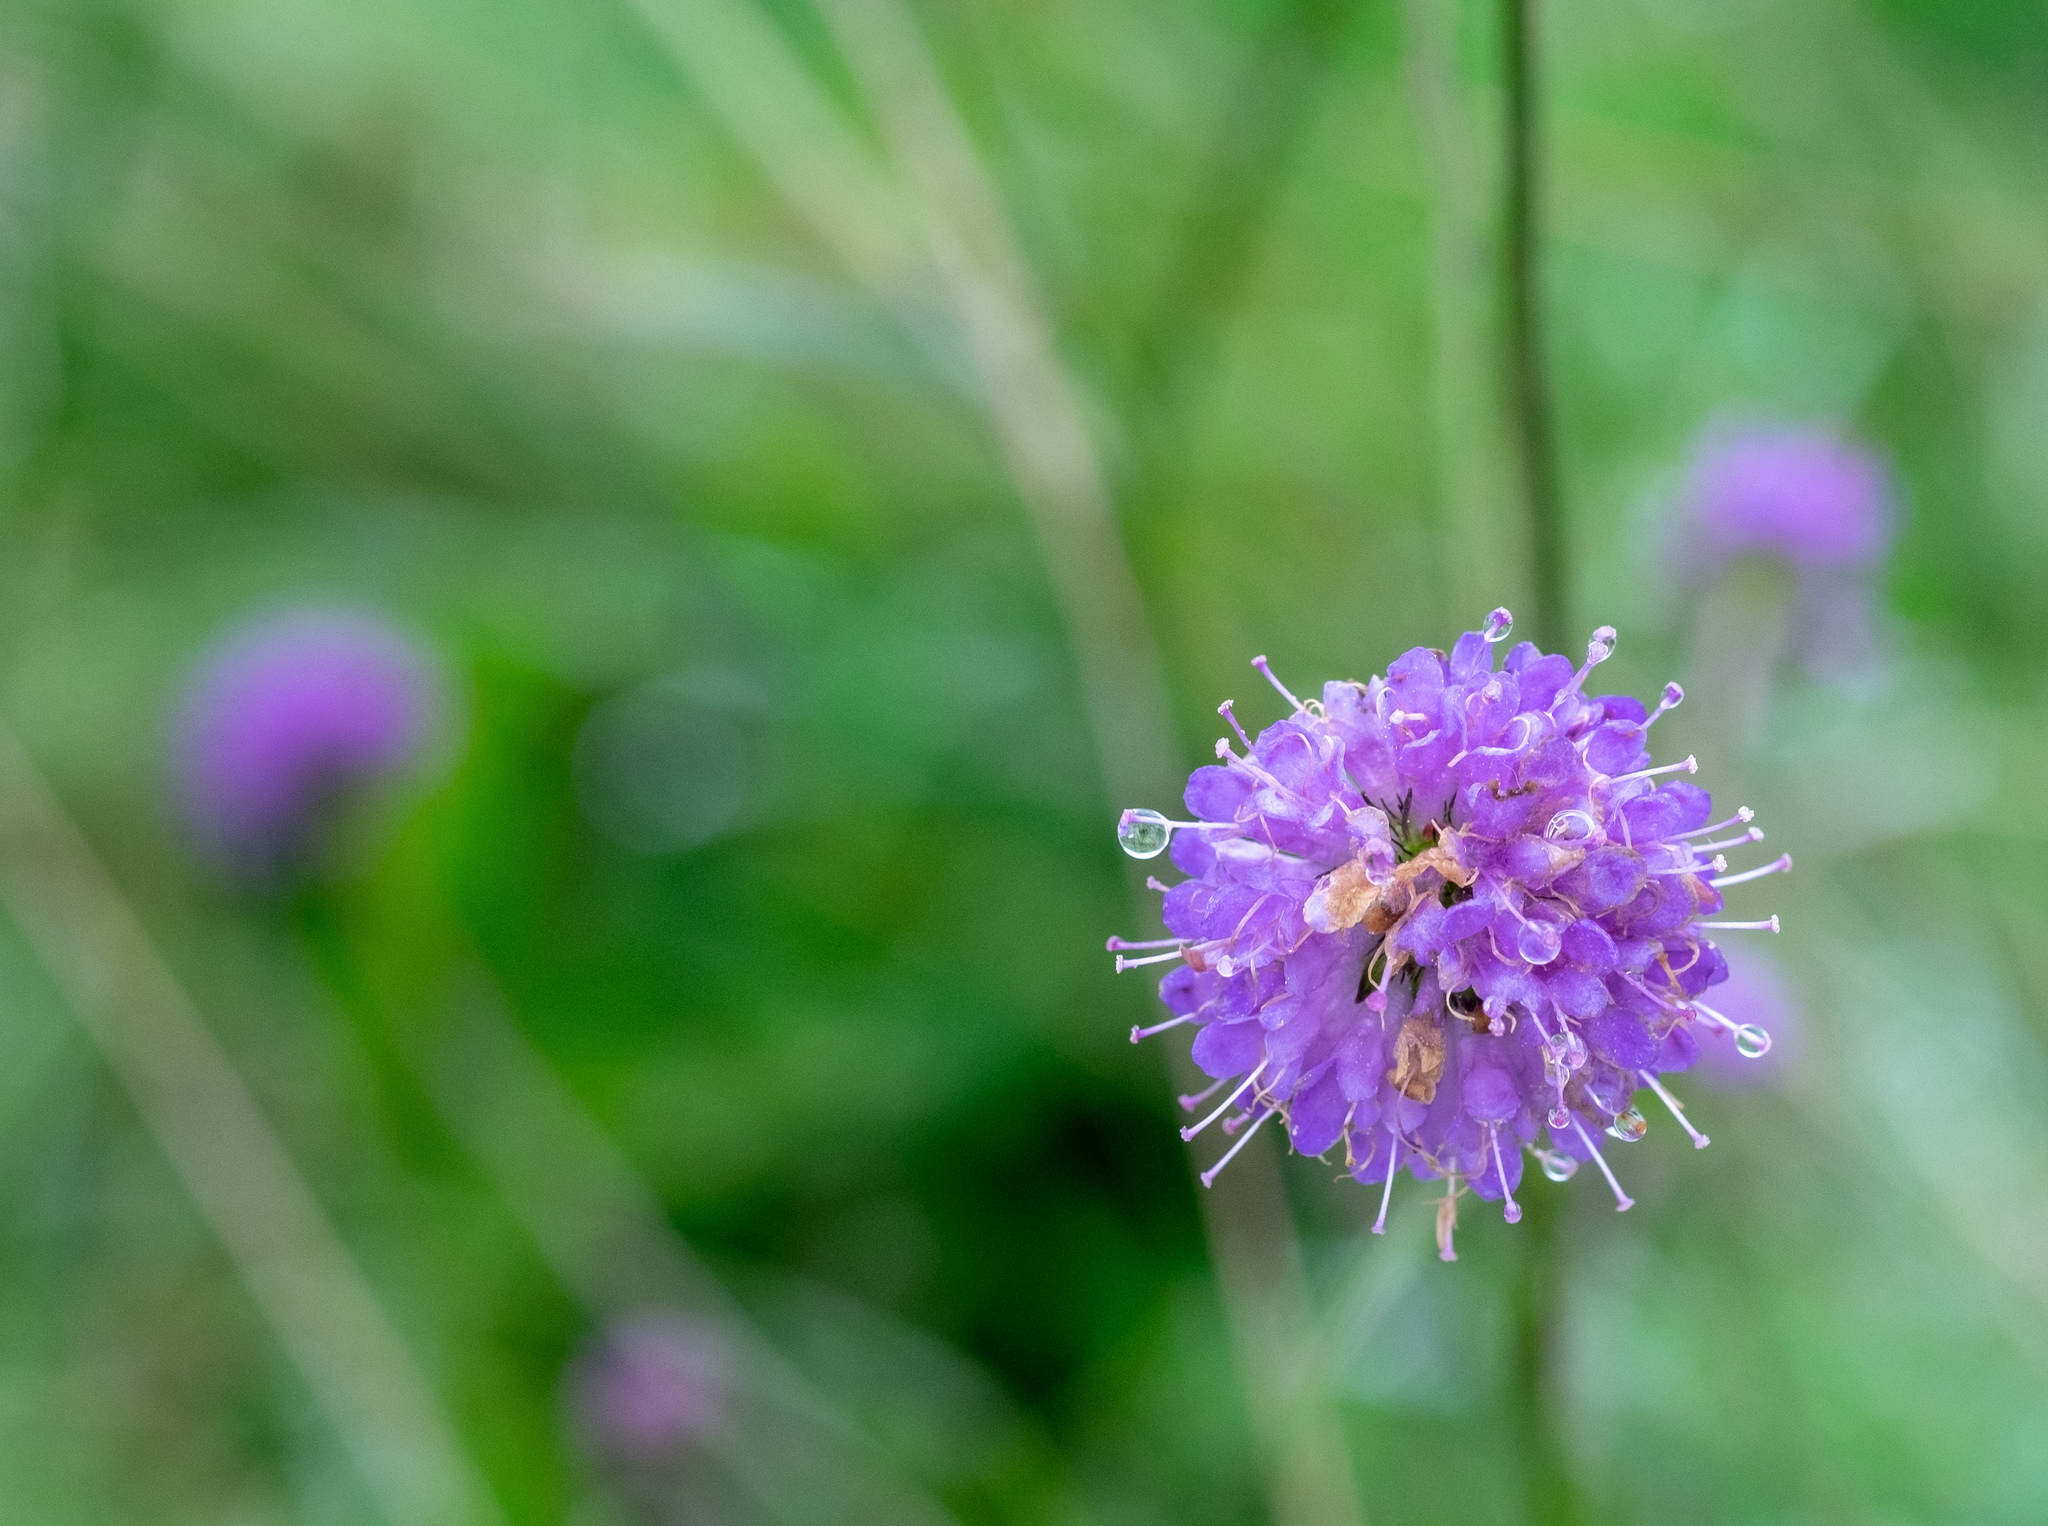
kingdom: Plantae
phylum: Tracheophyta
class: Magnoliopsida
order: Dipsacales
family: Caprifoliaceae
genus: Succisa
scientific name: Succisa pratensis
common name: Devil's-bit
